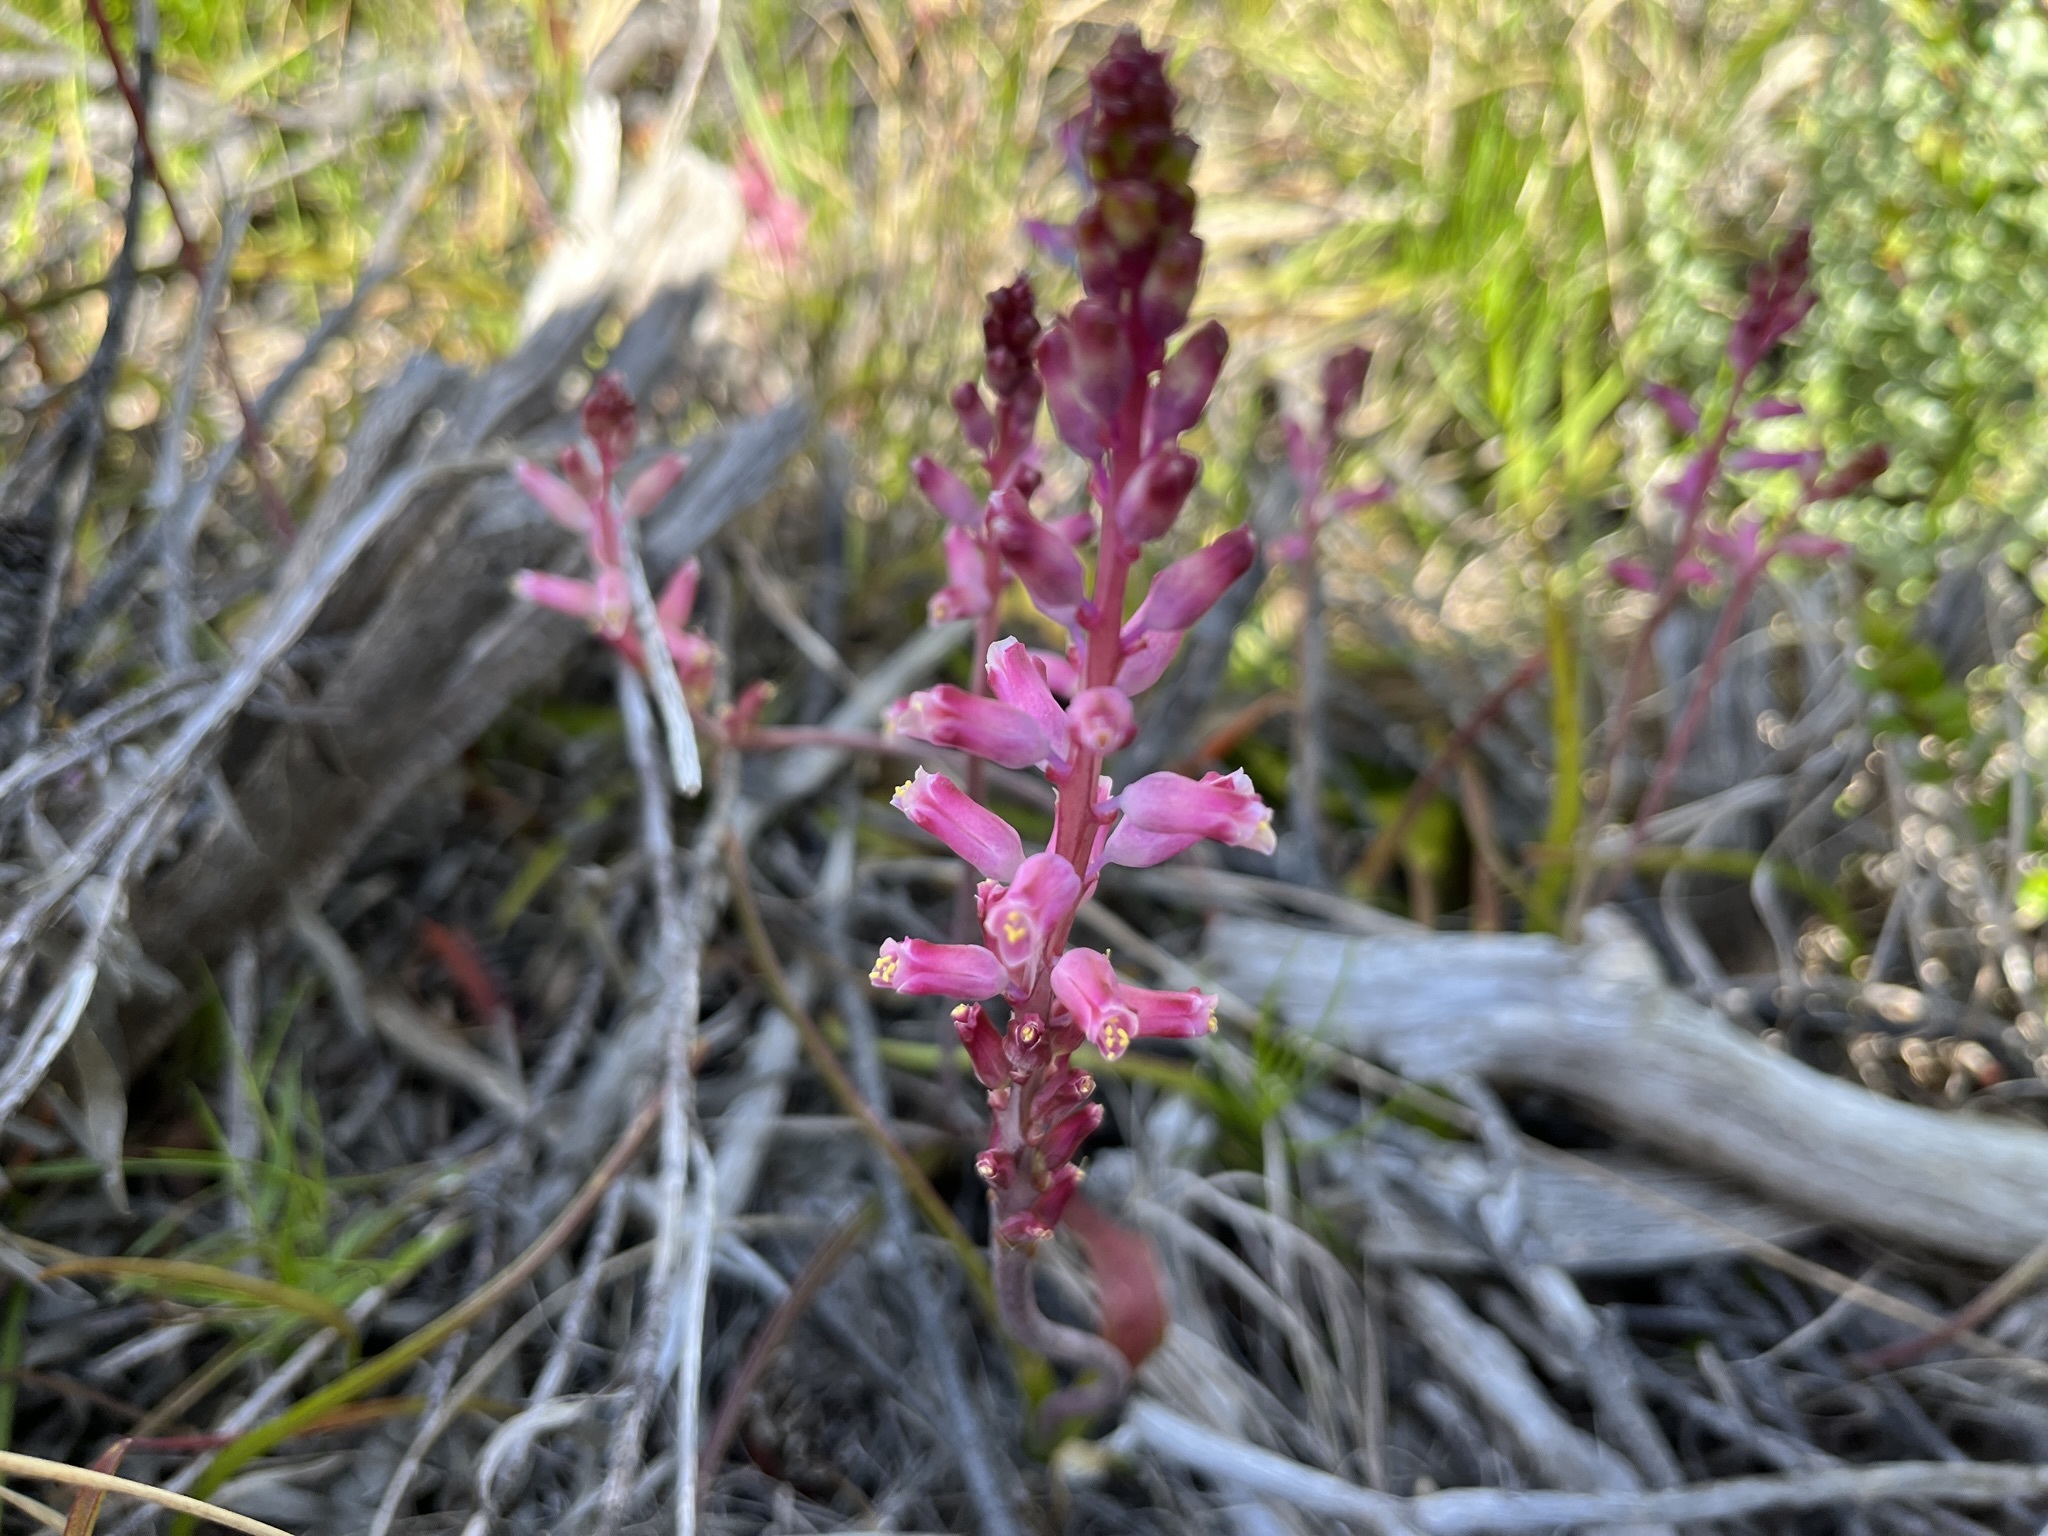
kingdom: Plantae
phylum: Tracheophyta
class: Liliopsida
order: Asparagales
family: Asparagaceae
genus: Lachenalia
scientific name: Lachenalia rosea
